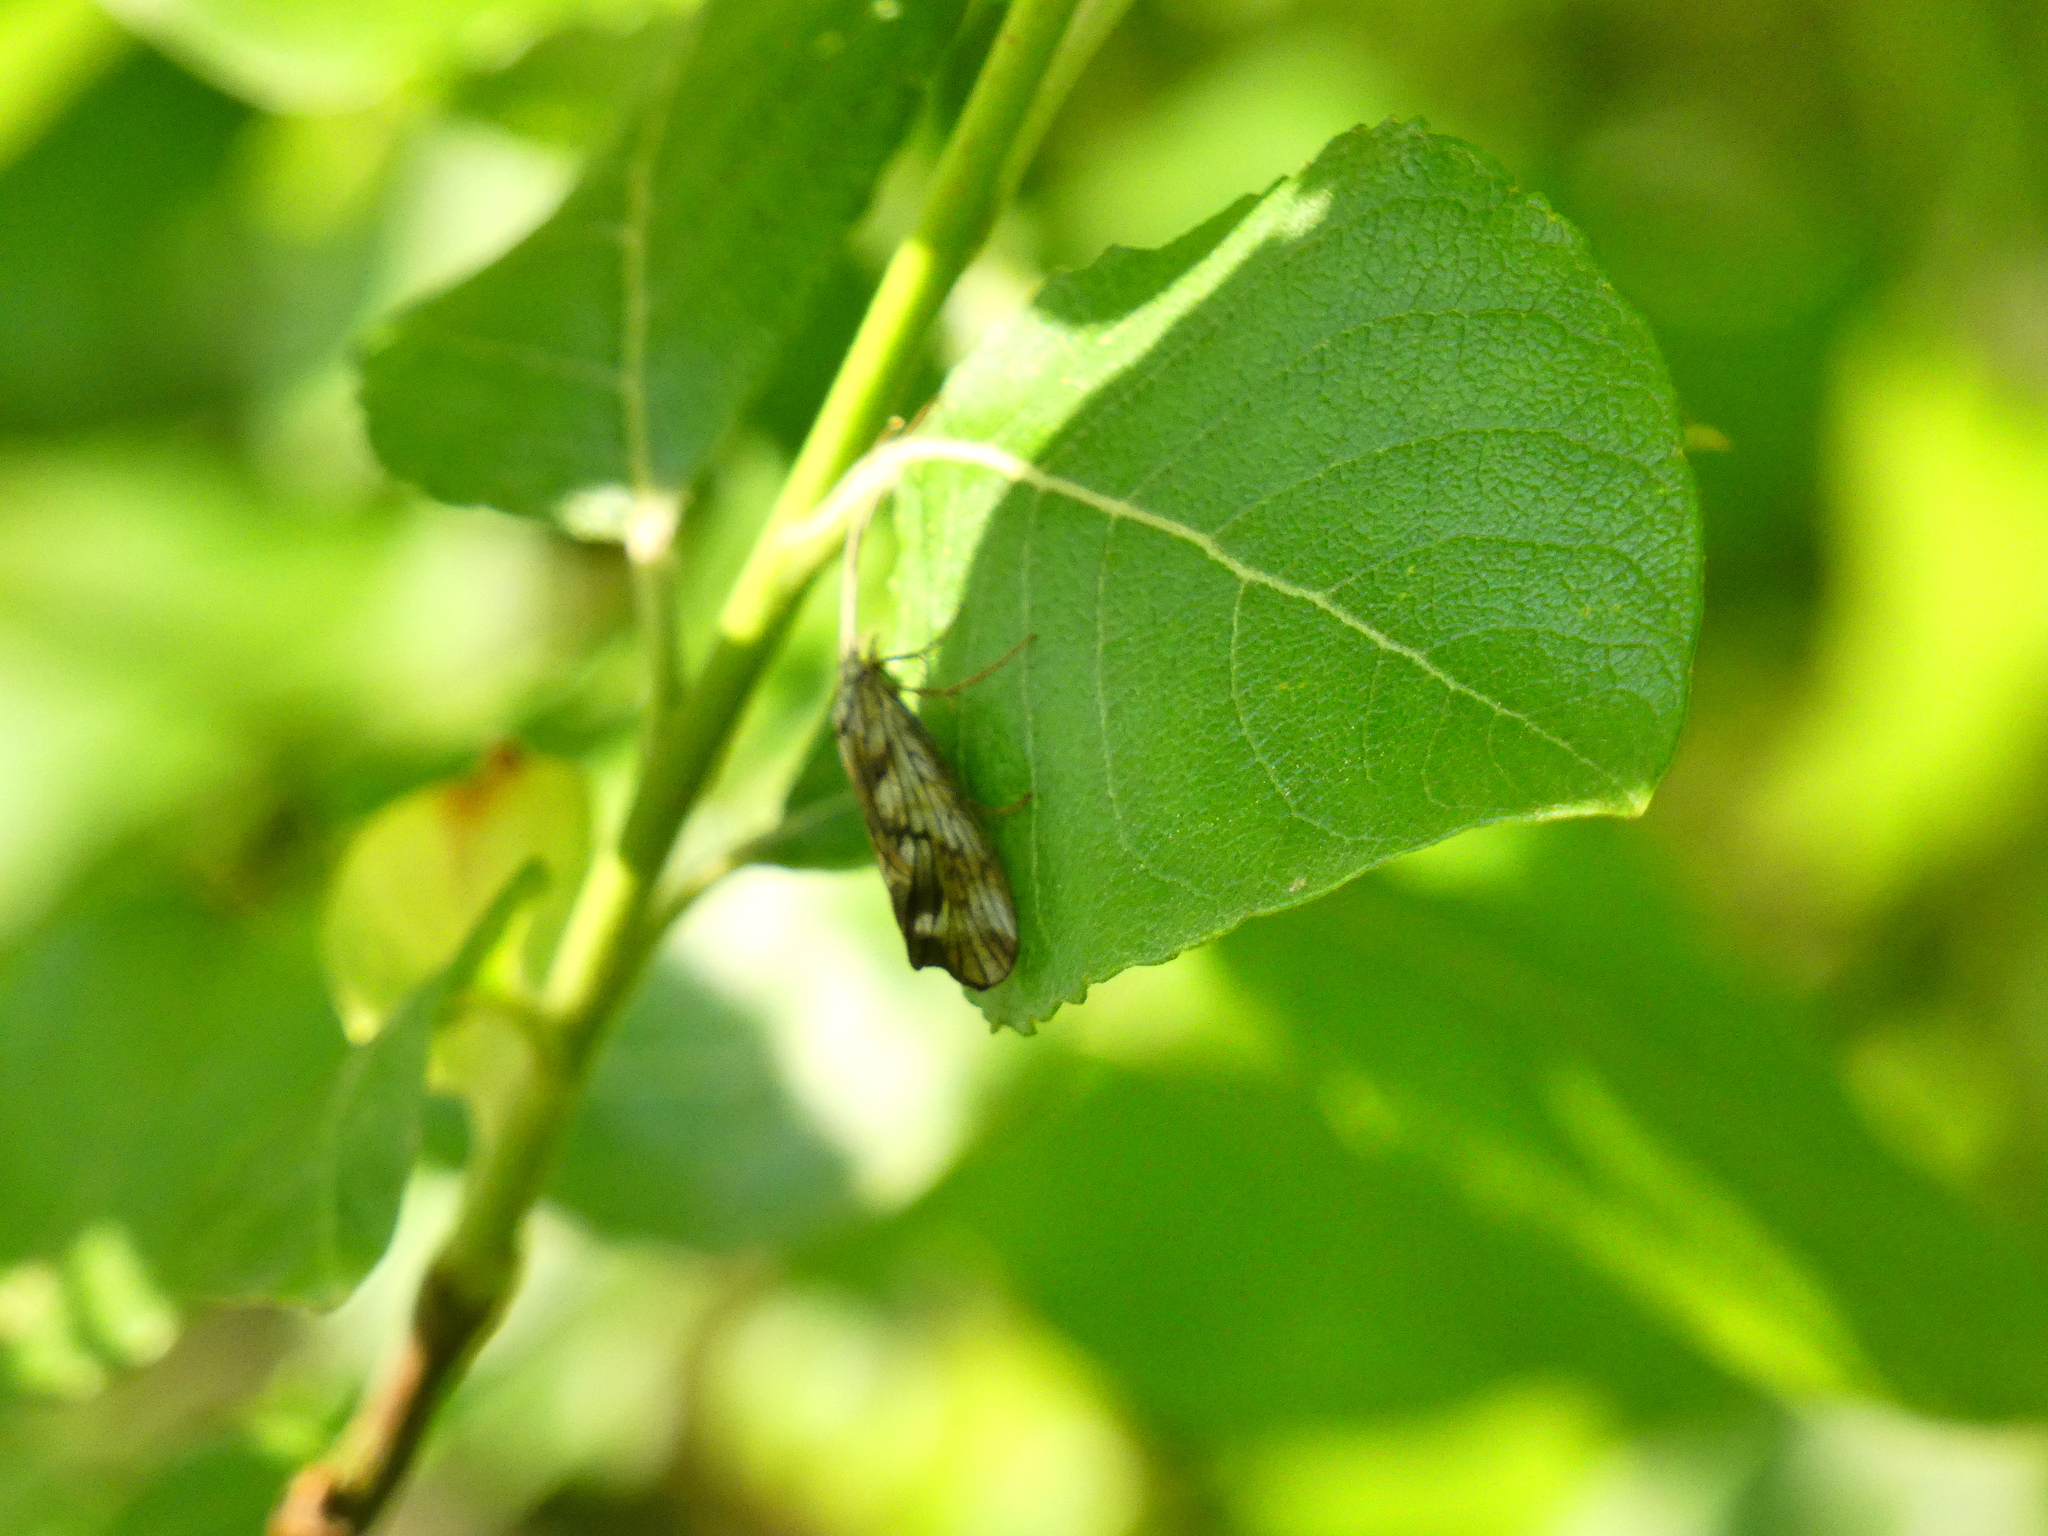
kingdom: Animalia
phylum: Arthropoda
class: Insecta
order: Trichoptera
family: Odontoceridae
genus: Odontocerum
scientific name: Odontocerum albicorne
